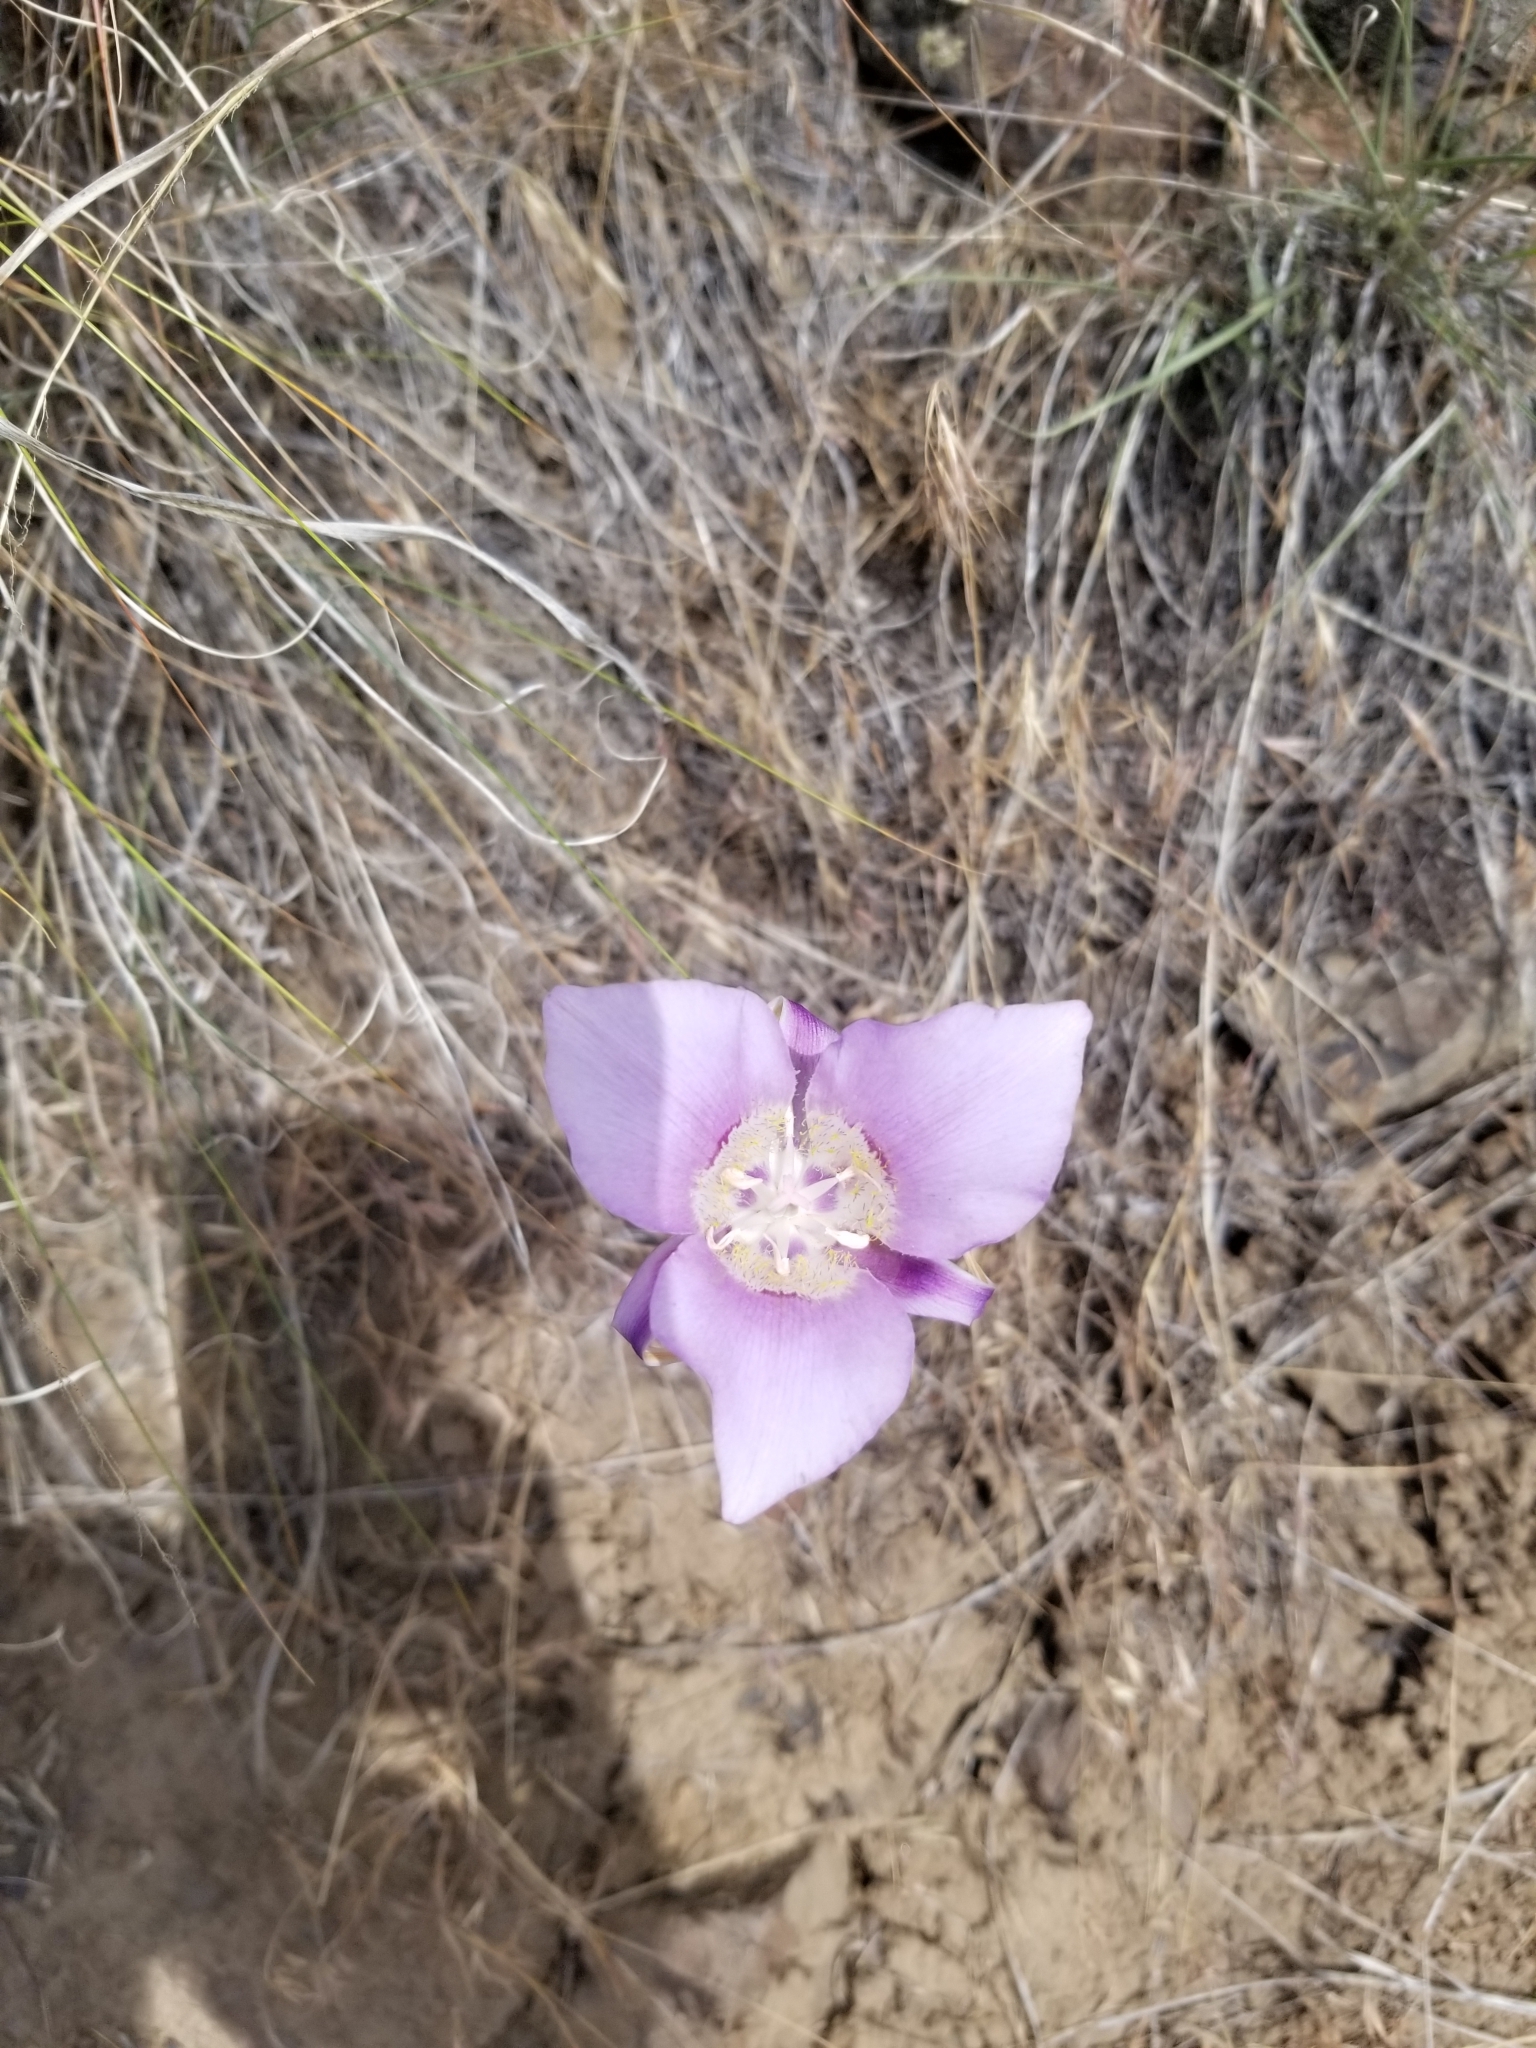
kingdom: Plantae
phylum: Tracheophyta
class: Liliopsida
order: Liliales
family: Liliaceae
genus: Calochortus
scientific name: Calochortus macrocarpus
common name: Green-band mariposa lily
